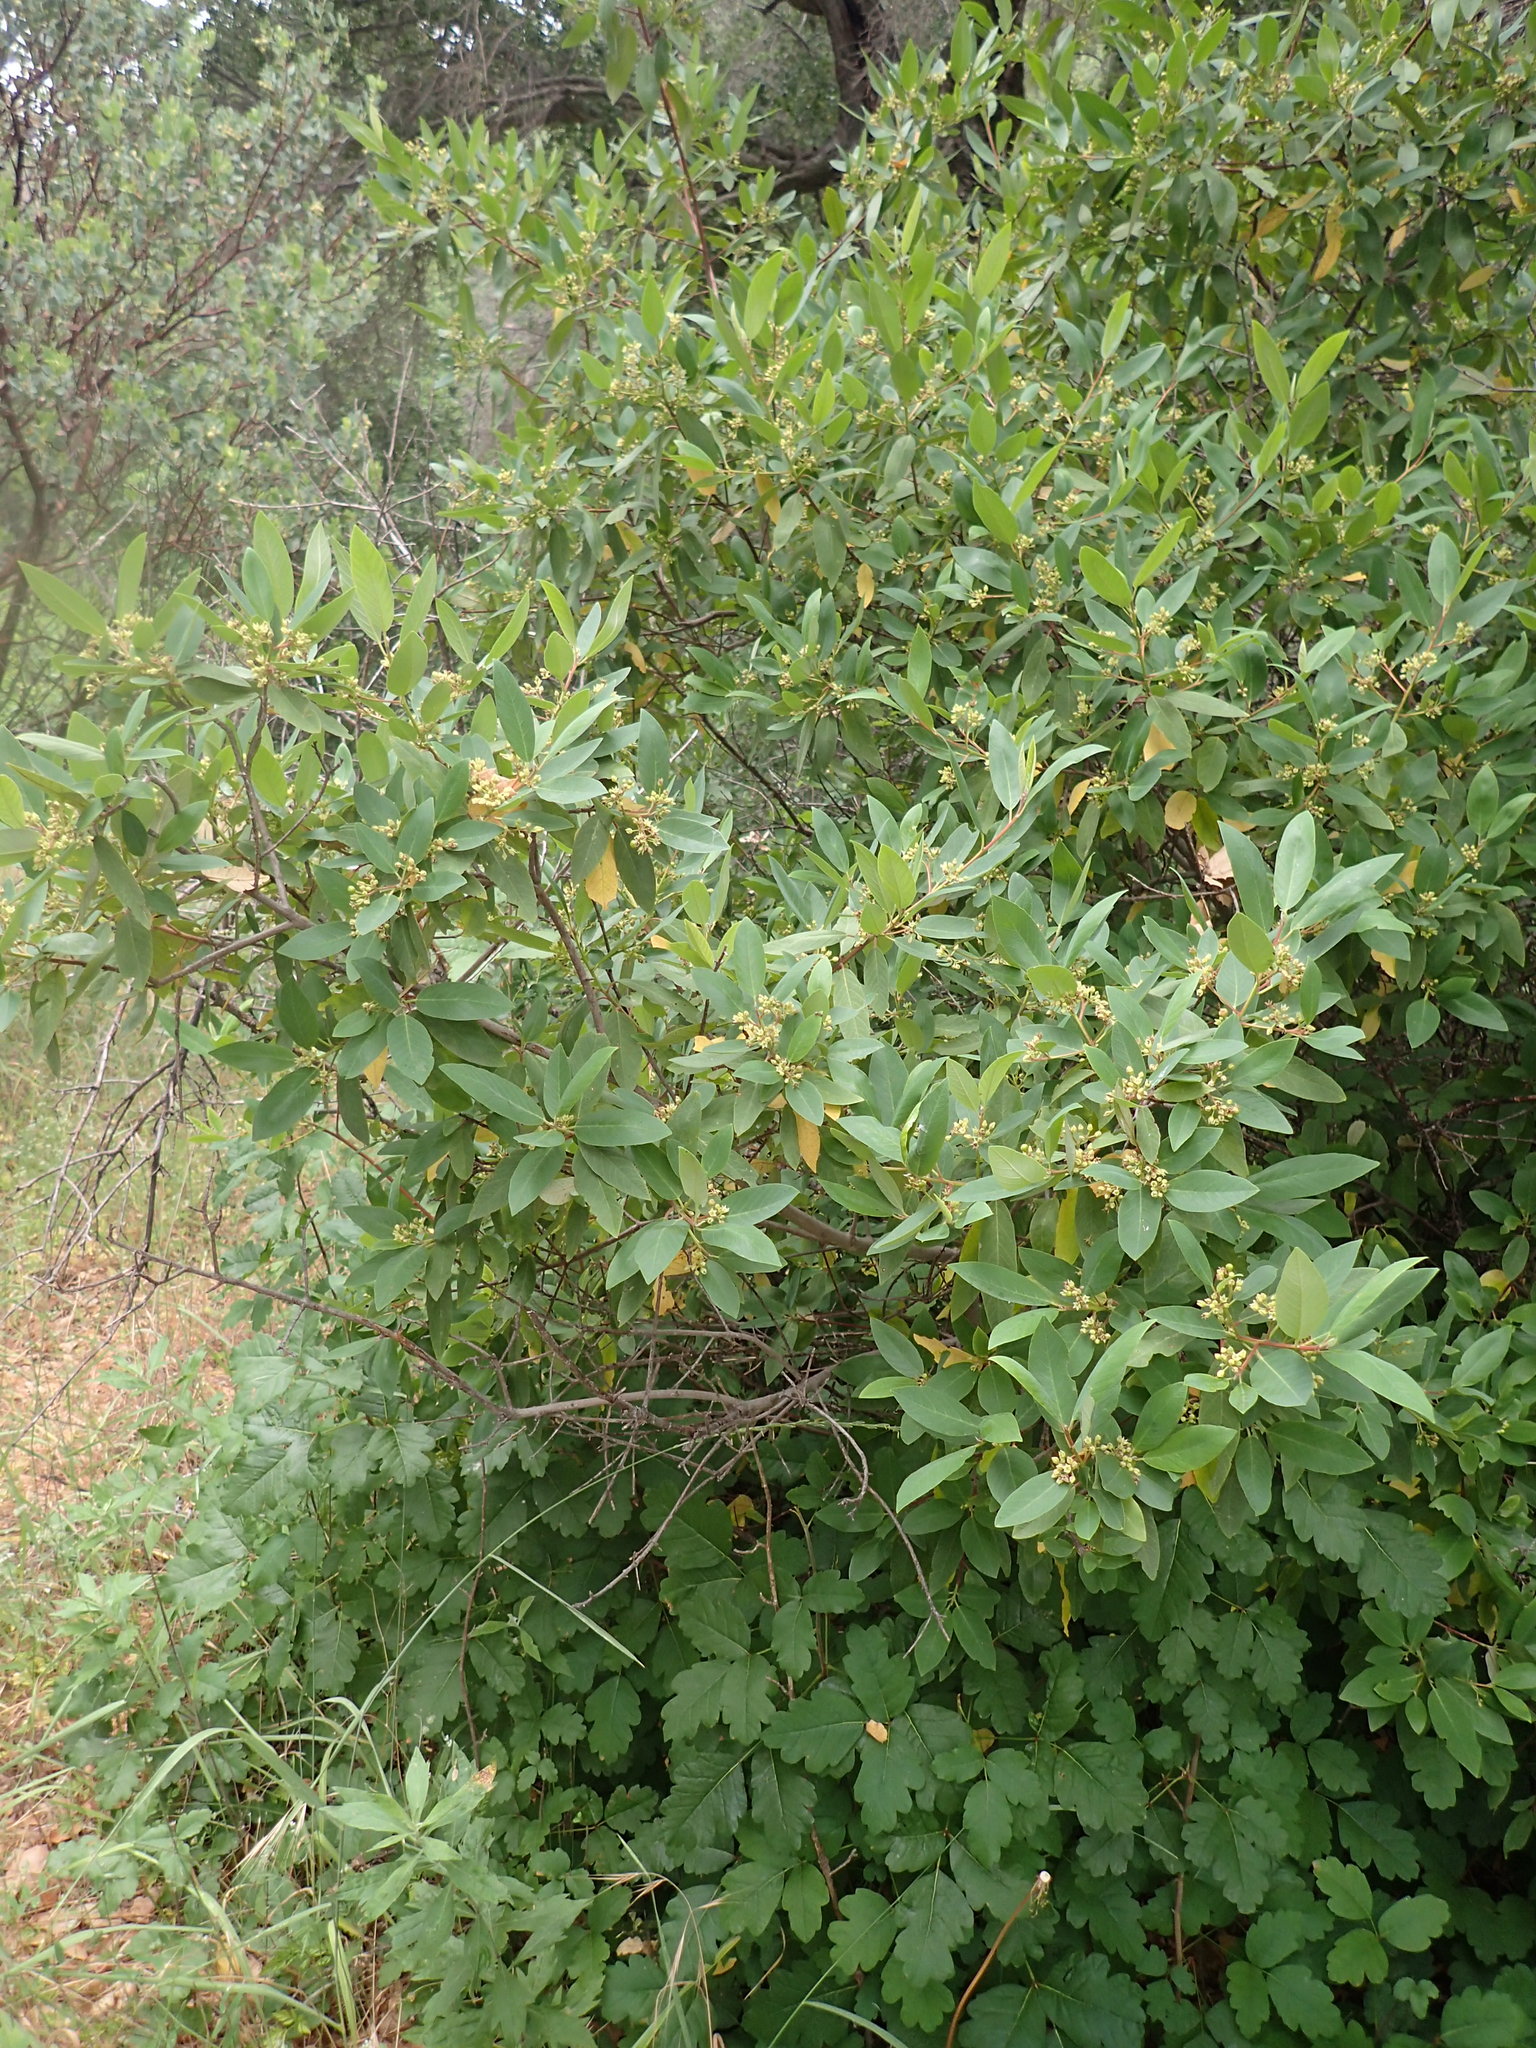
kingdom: Plantae
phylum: Tracheophyta
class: Magnoliopsida
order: Rosales
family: Rhamnaceae
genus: Frangula
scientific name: Frangula californica
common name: California buckthorn
